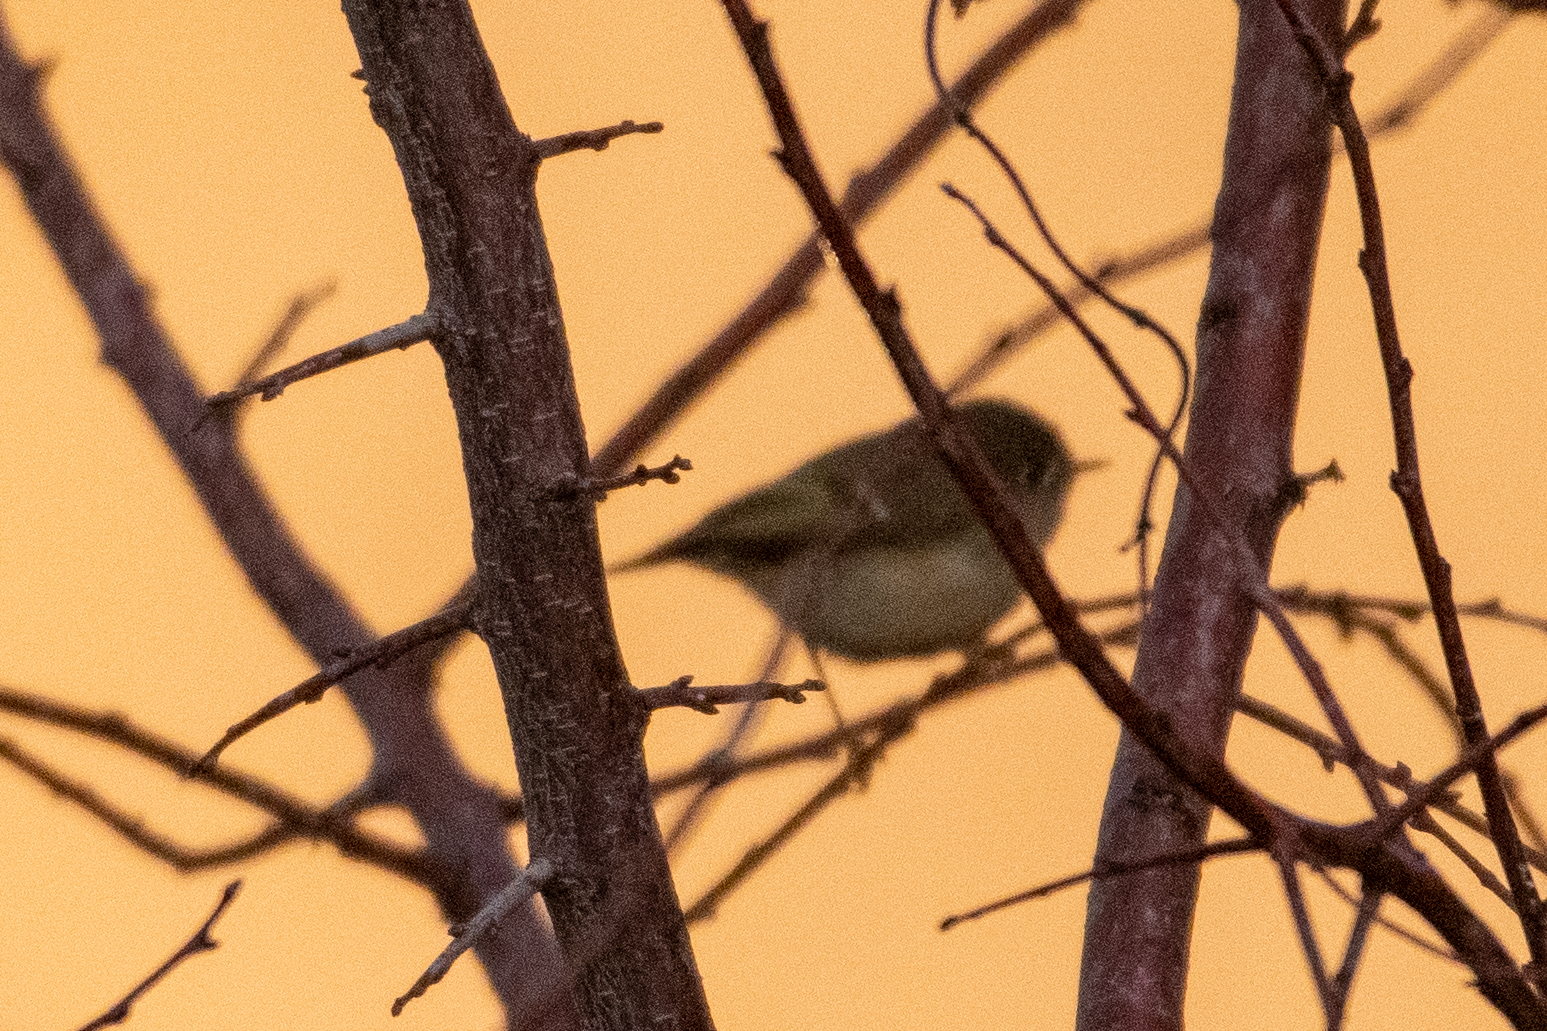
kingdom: Animalia
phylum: Chordata
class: Aves
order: Passeriformes
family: Regulidae
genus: Regulus
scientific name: Regulus calendula
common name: Ruby-crowned kinglet
